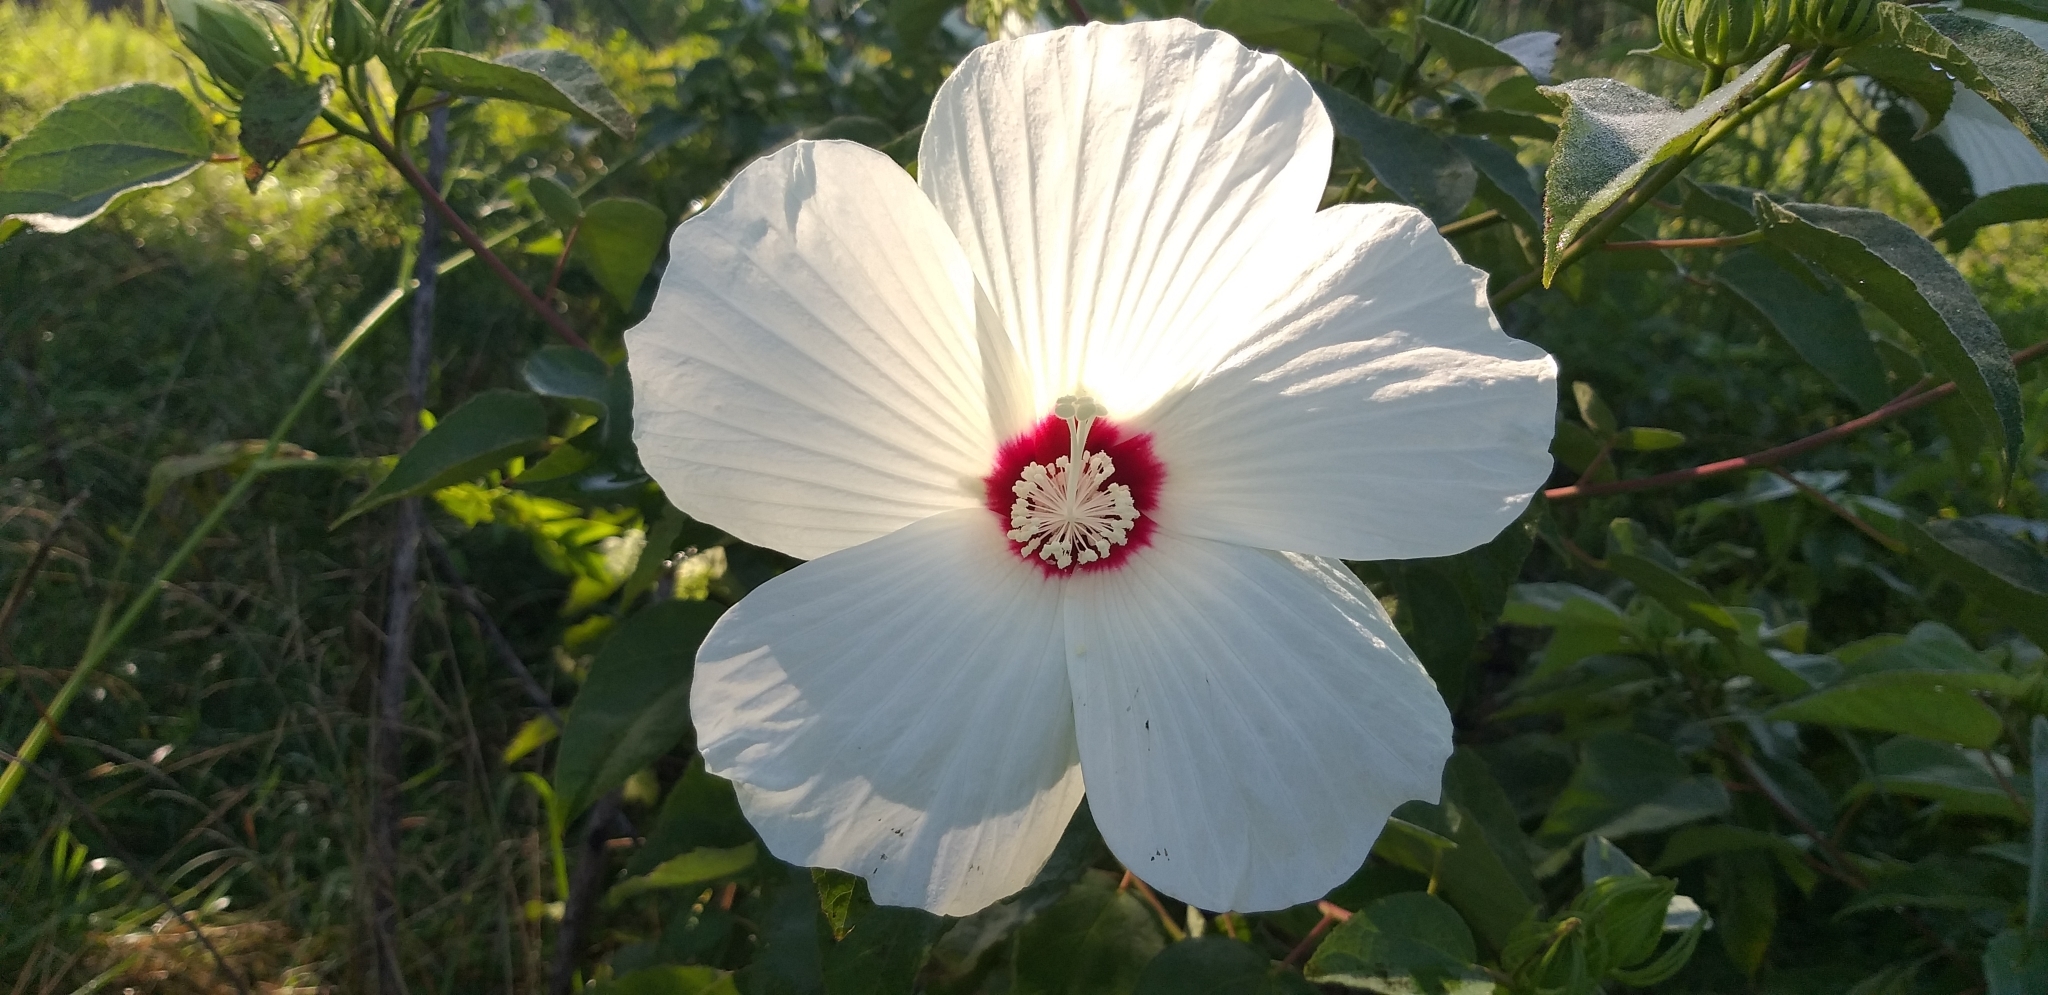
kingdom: Plantae
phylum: Tracheophyta
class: Magnoliopsida
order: Malvales
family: Malvaceae
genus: Hibiscus
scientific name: Hibiscus moscheutos
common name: Common rose-mallow
